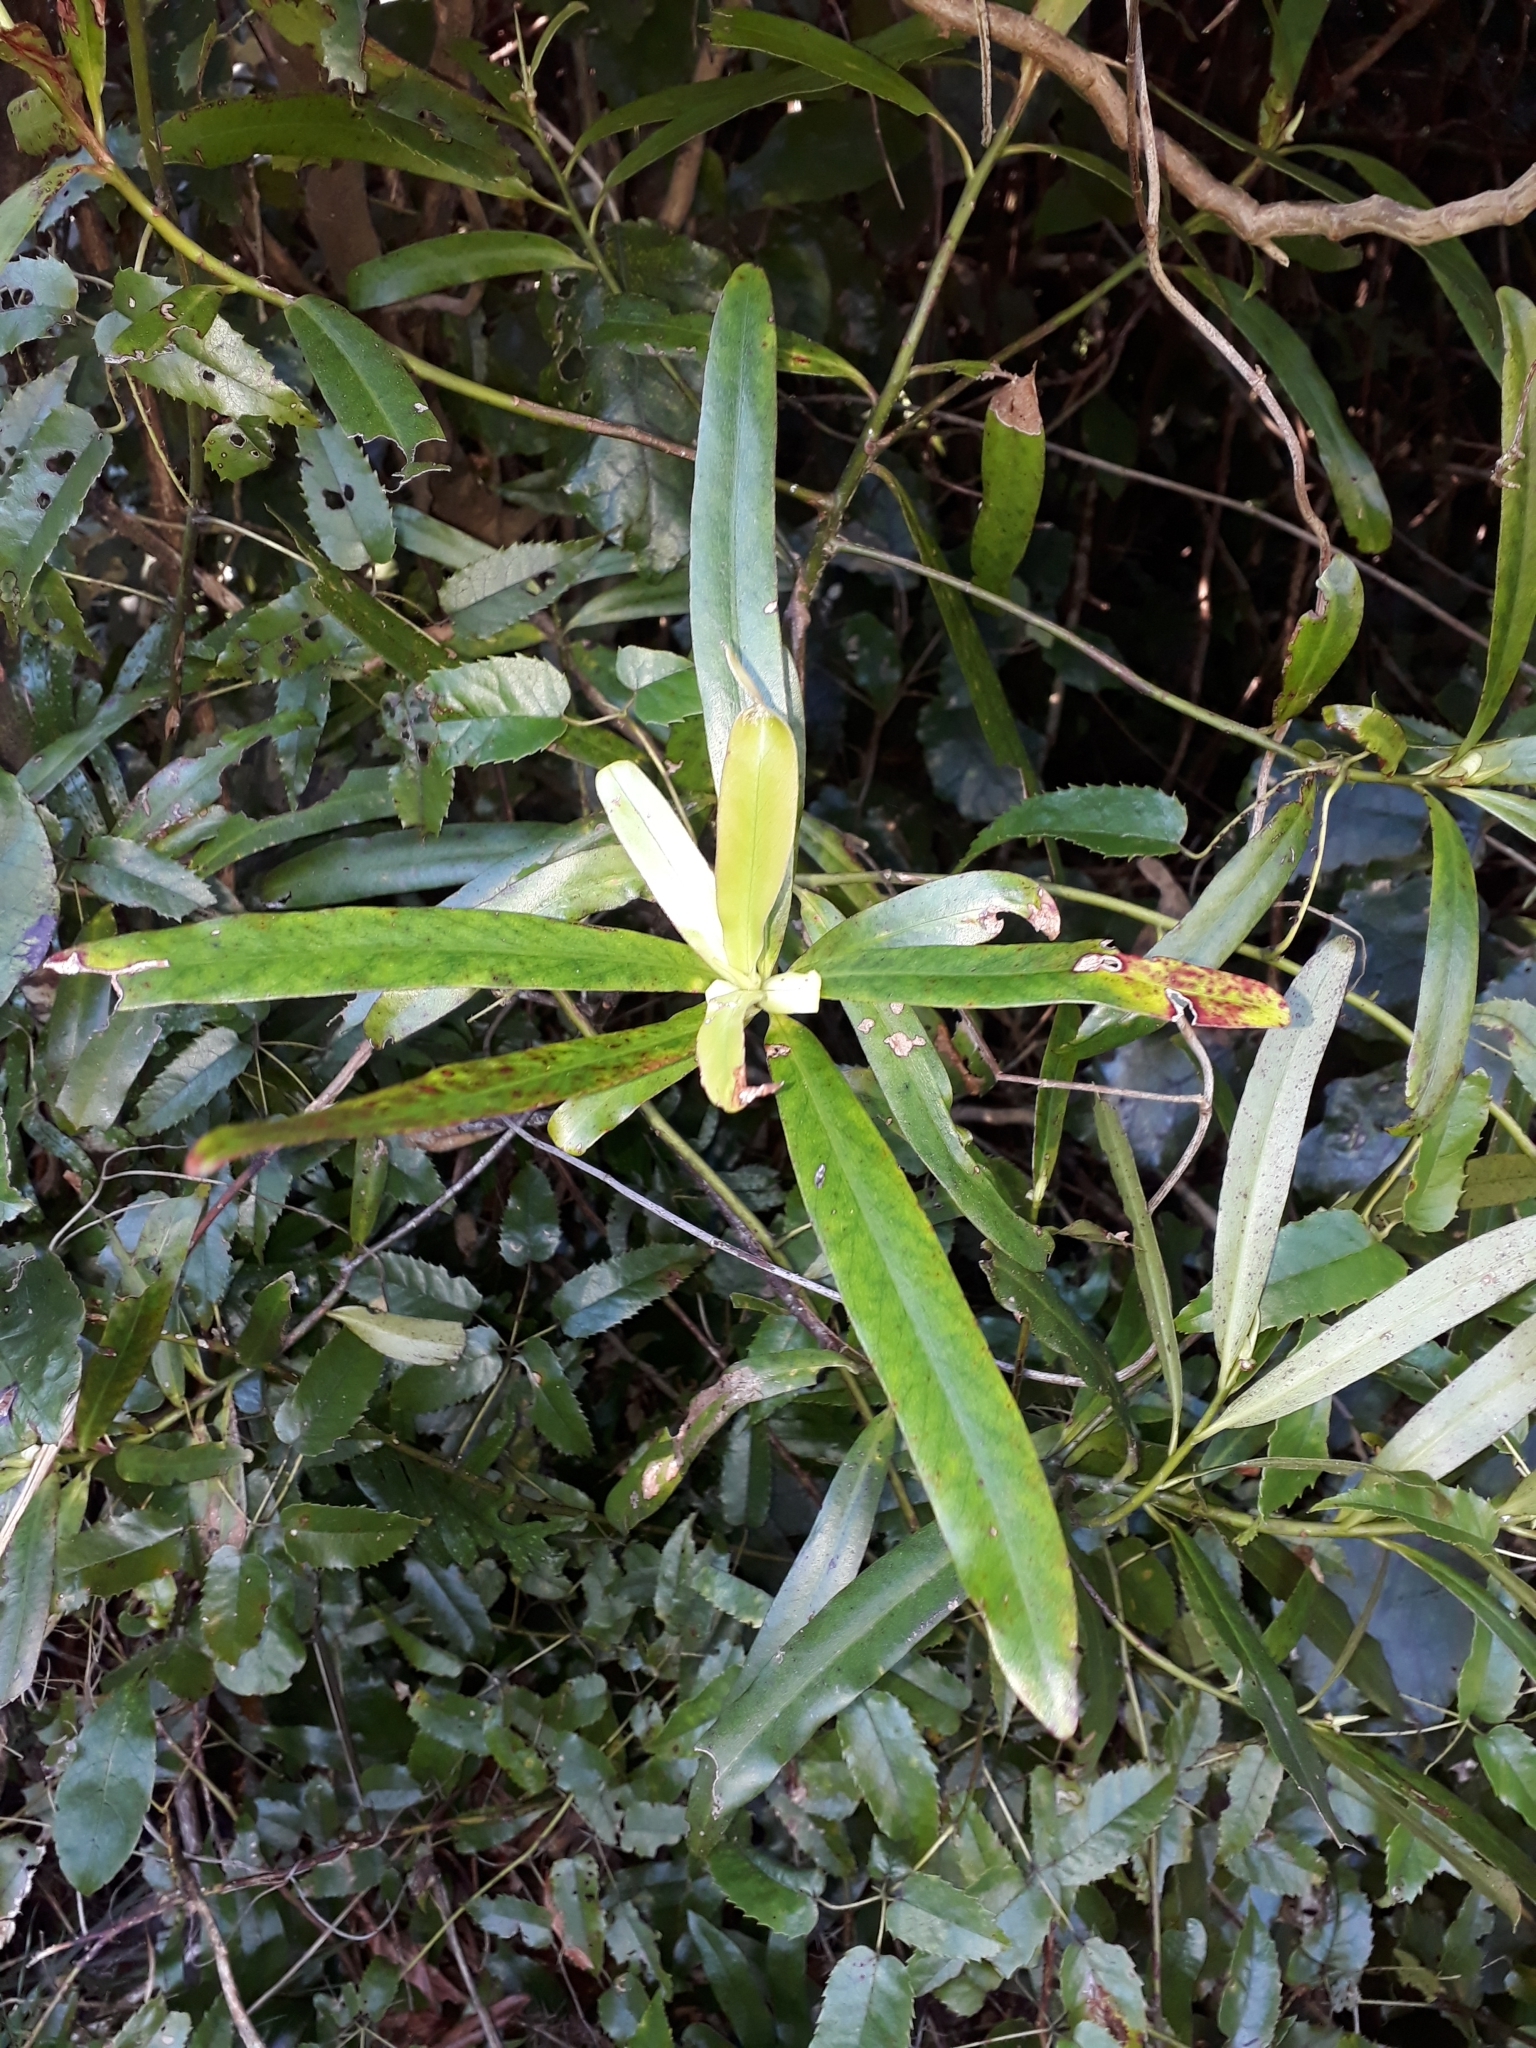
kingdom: Plantae
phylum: Tracheophyta
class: Magnoliopsida
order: Ericales
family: Primulaceae
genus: Myrsine
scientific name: Myrsine salicina
